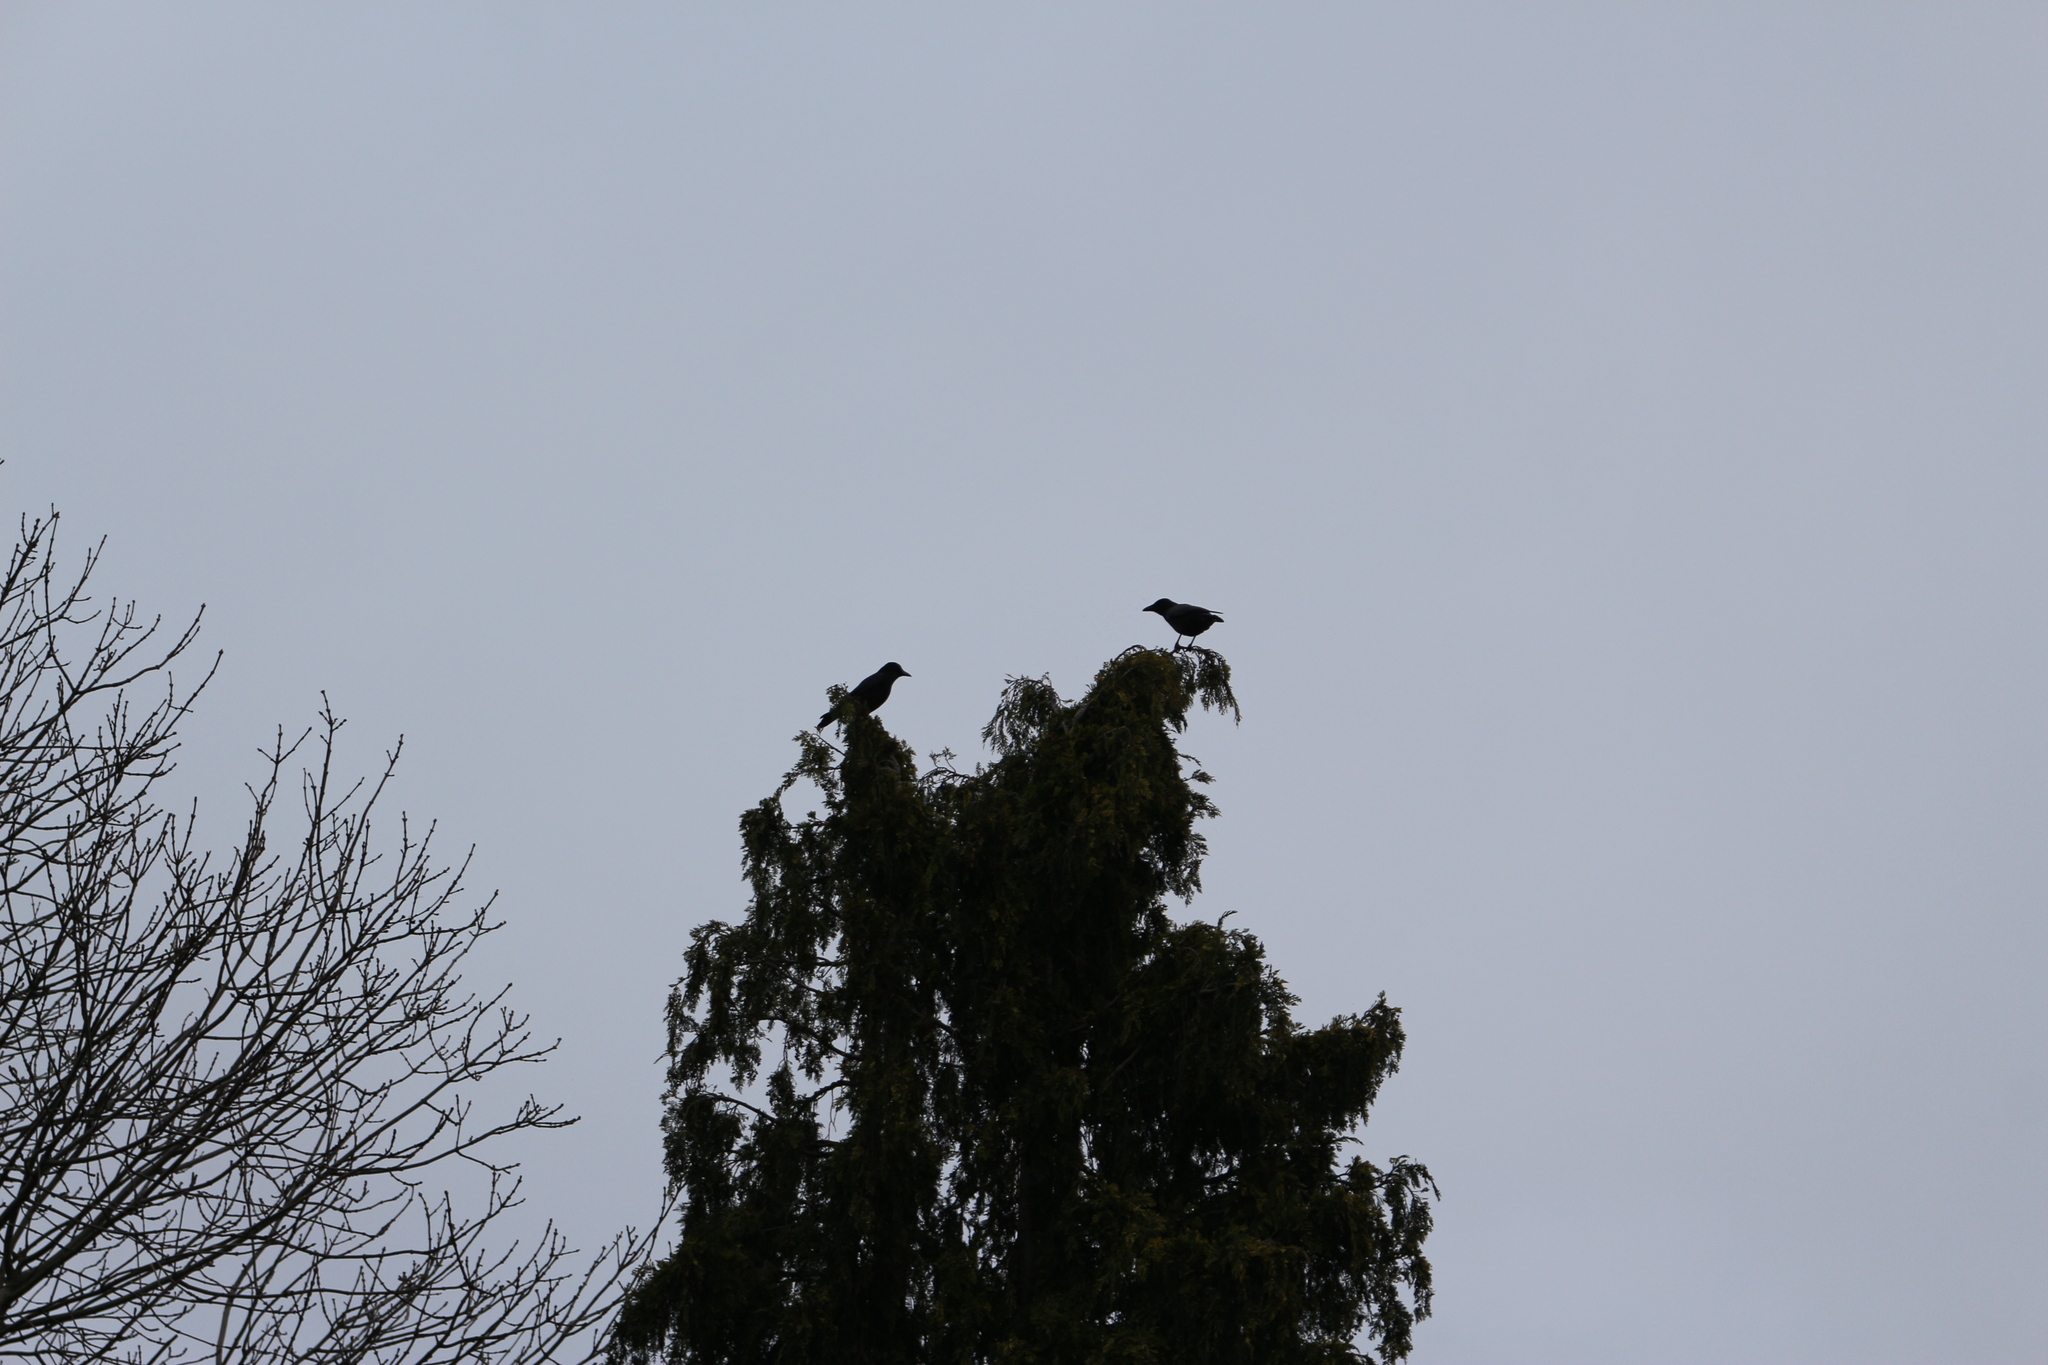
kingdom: Animalia
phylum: Chordata
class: Aves
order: Passeriformes
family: Corvidae
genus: Corvus
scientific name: Corvus corone
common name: Carrion crow
